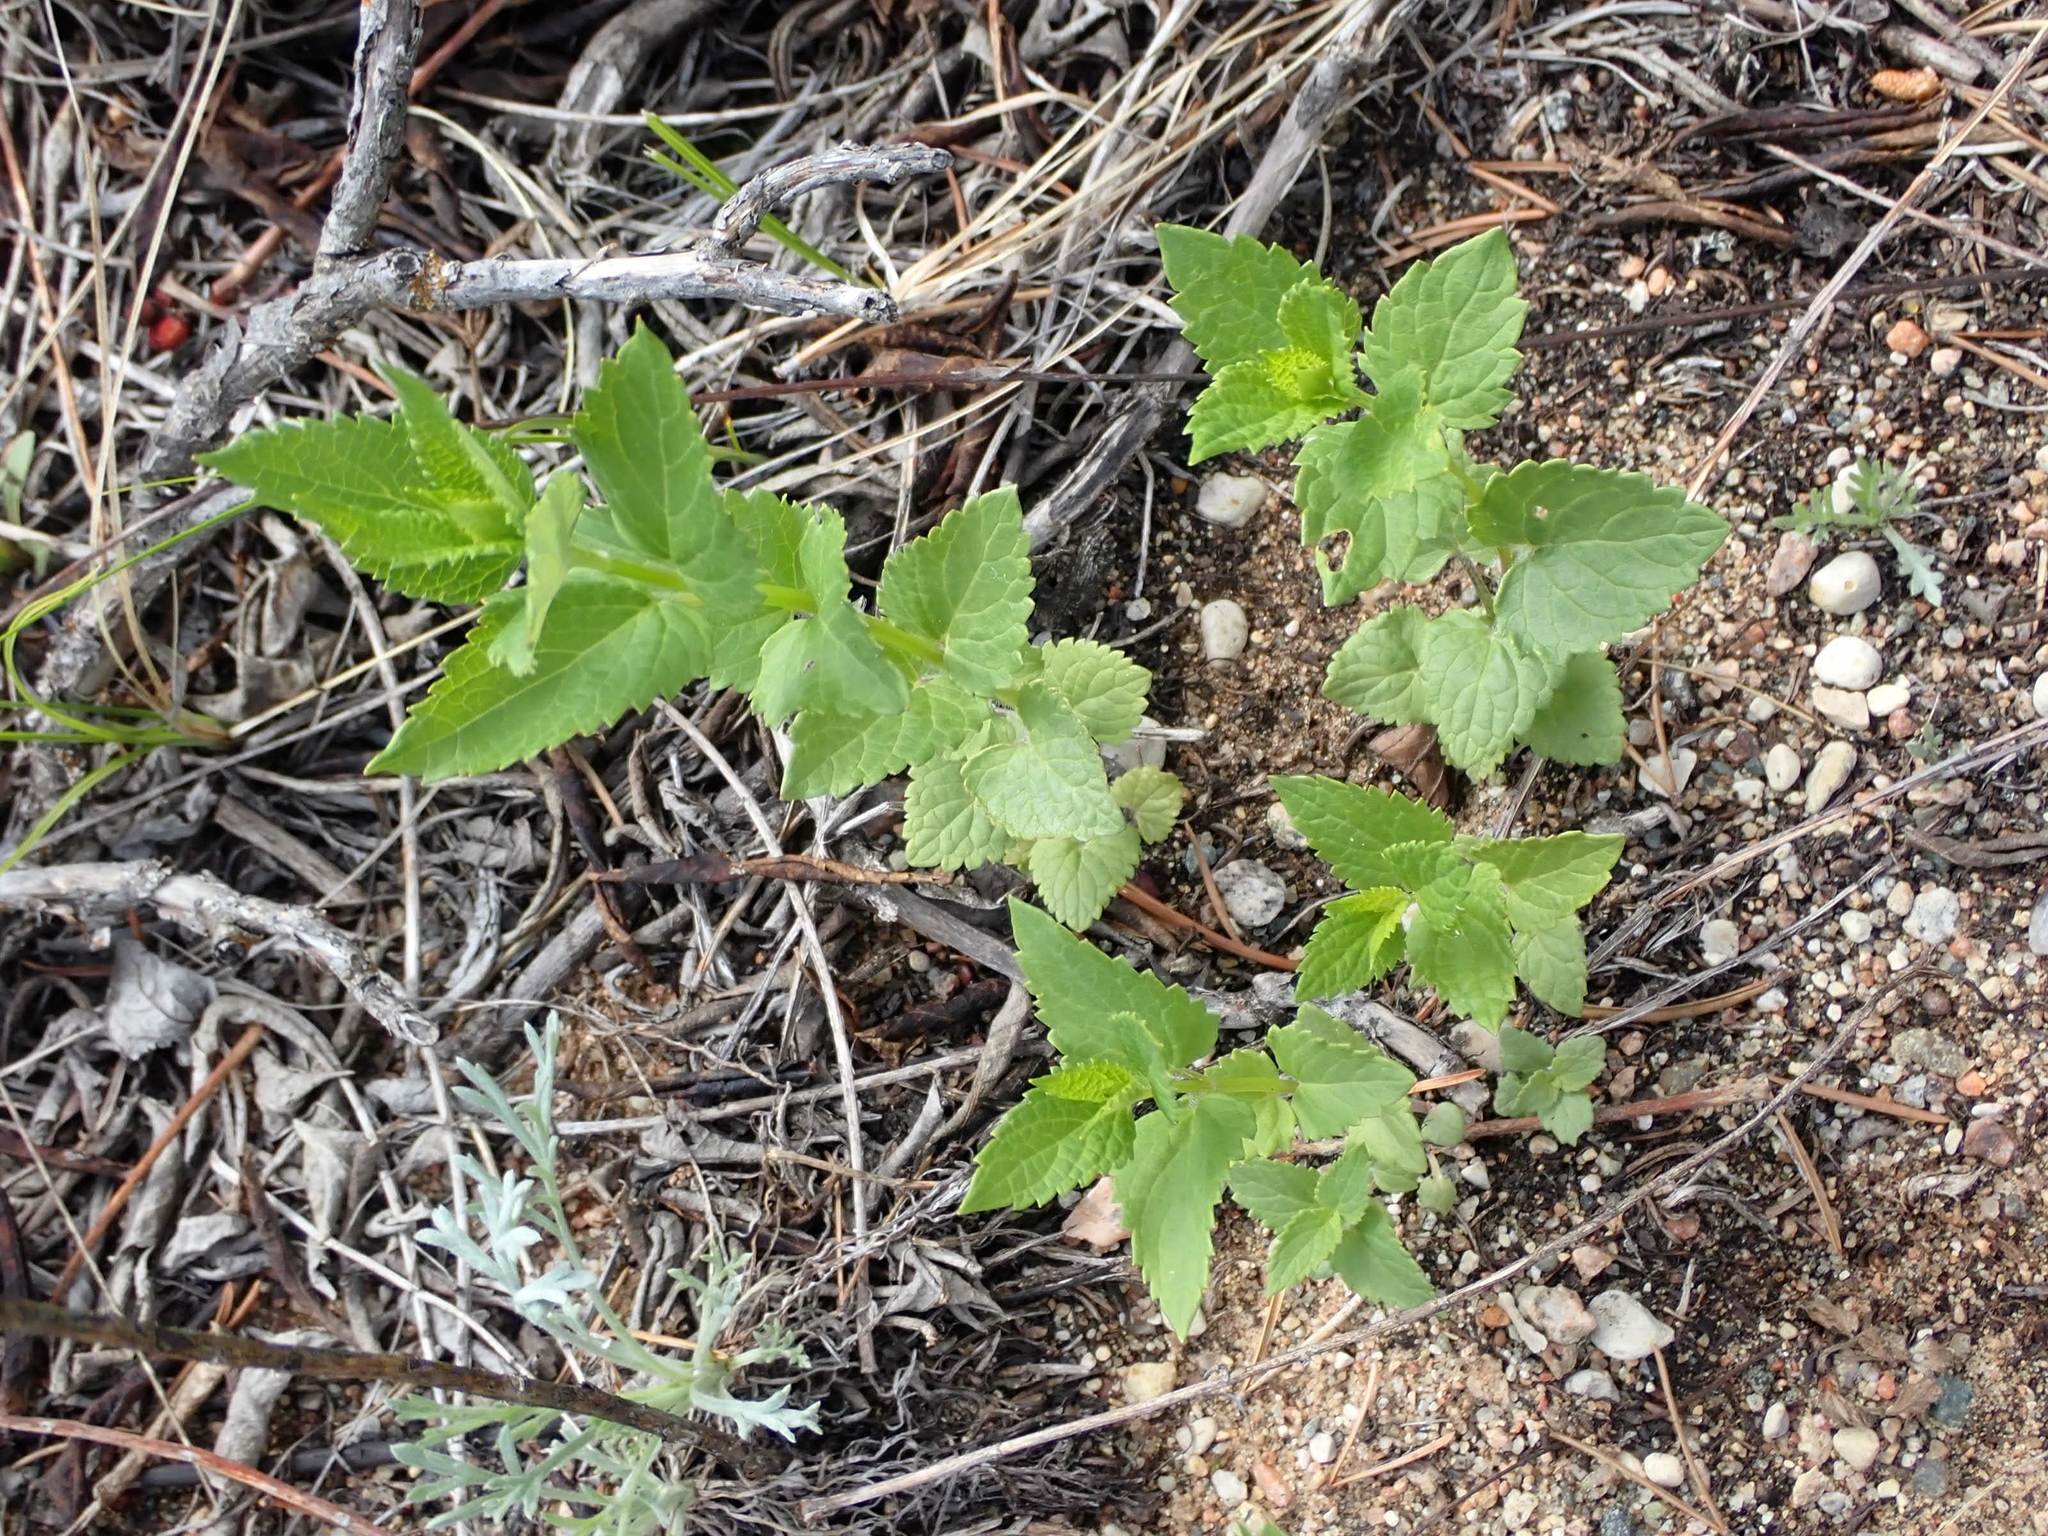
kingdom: Plantae
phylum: Tracheophyta
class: Magnoliopsida
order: Lamiales
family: Lamiaceae
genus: Agastache
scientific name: Agastache foeniculum
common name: Anise hyssop
